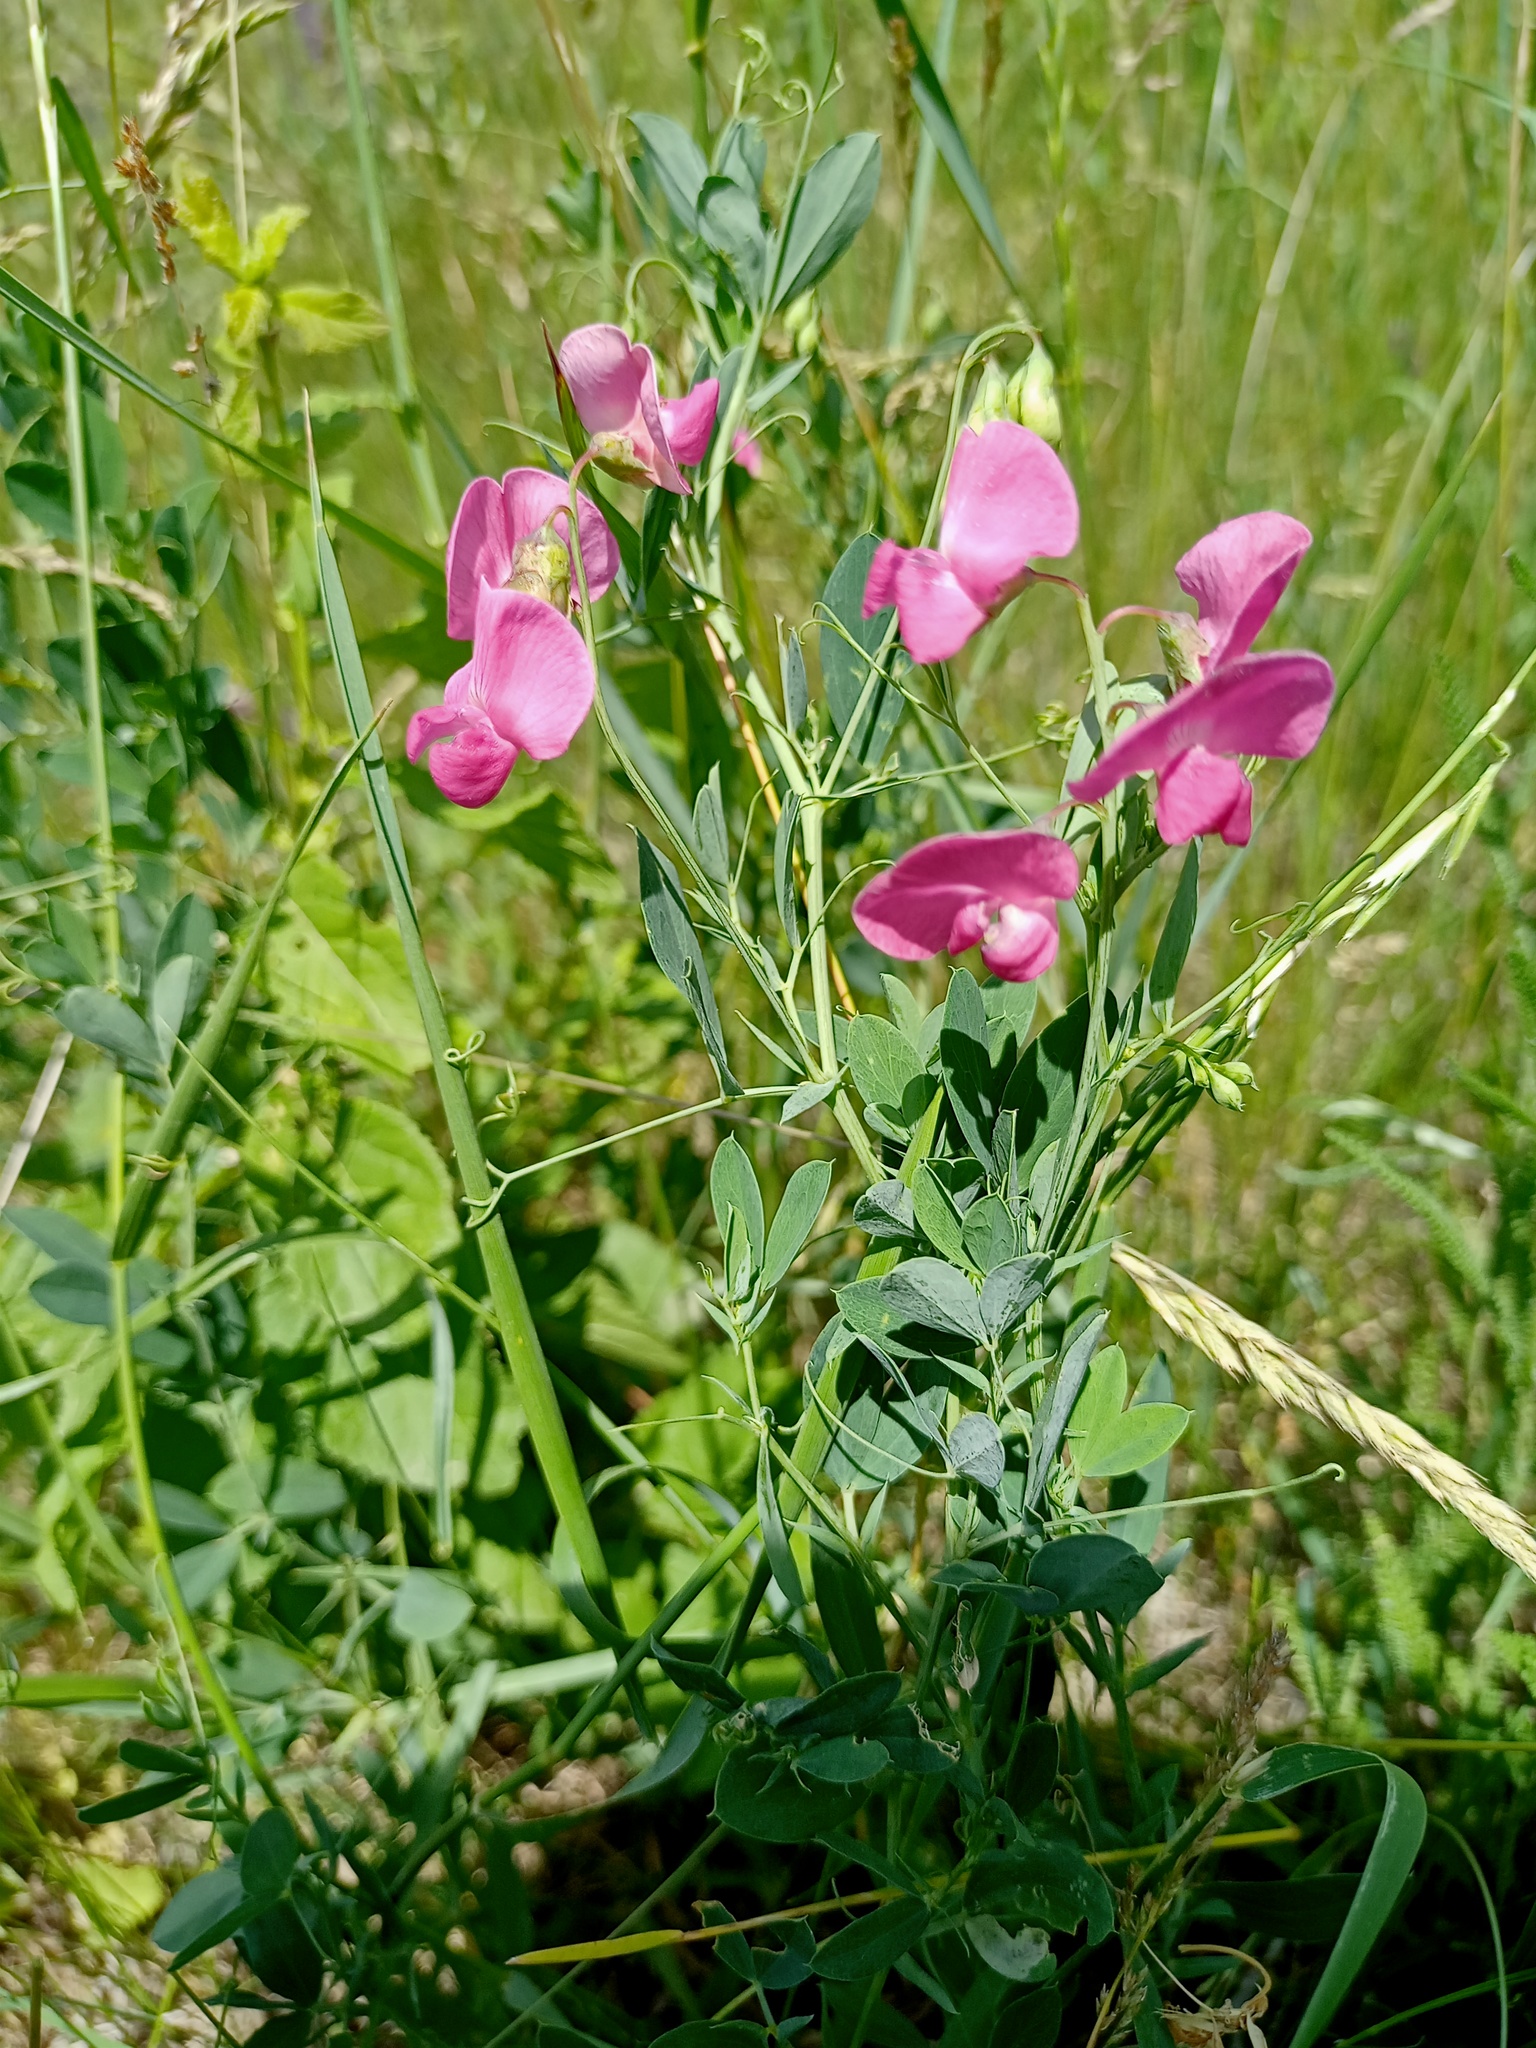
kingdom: Plantae
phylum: Tracheophyta
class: Magnoliopsida
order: Fabales
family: Fabaceae
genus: Lathyrus
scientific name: Lathyrus tuberosus
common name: Tuberous pea
